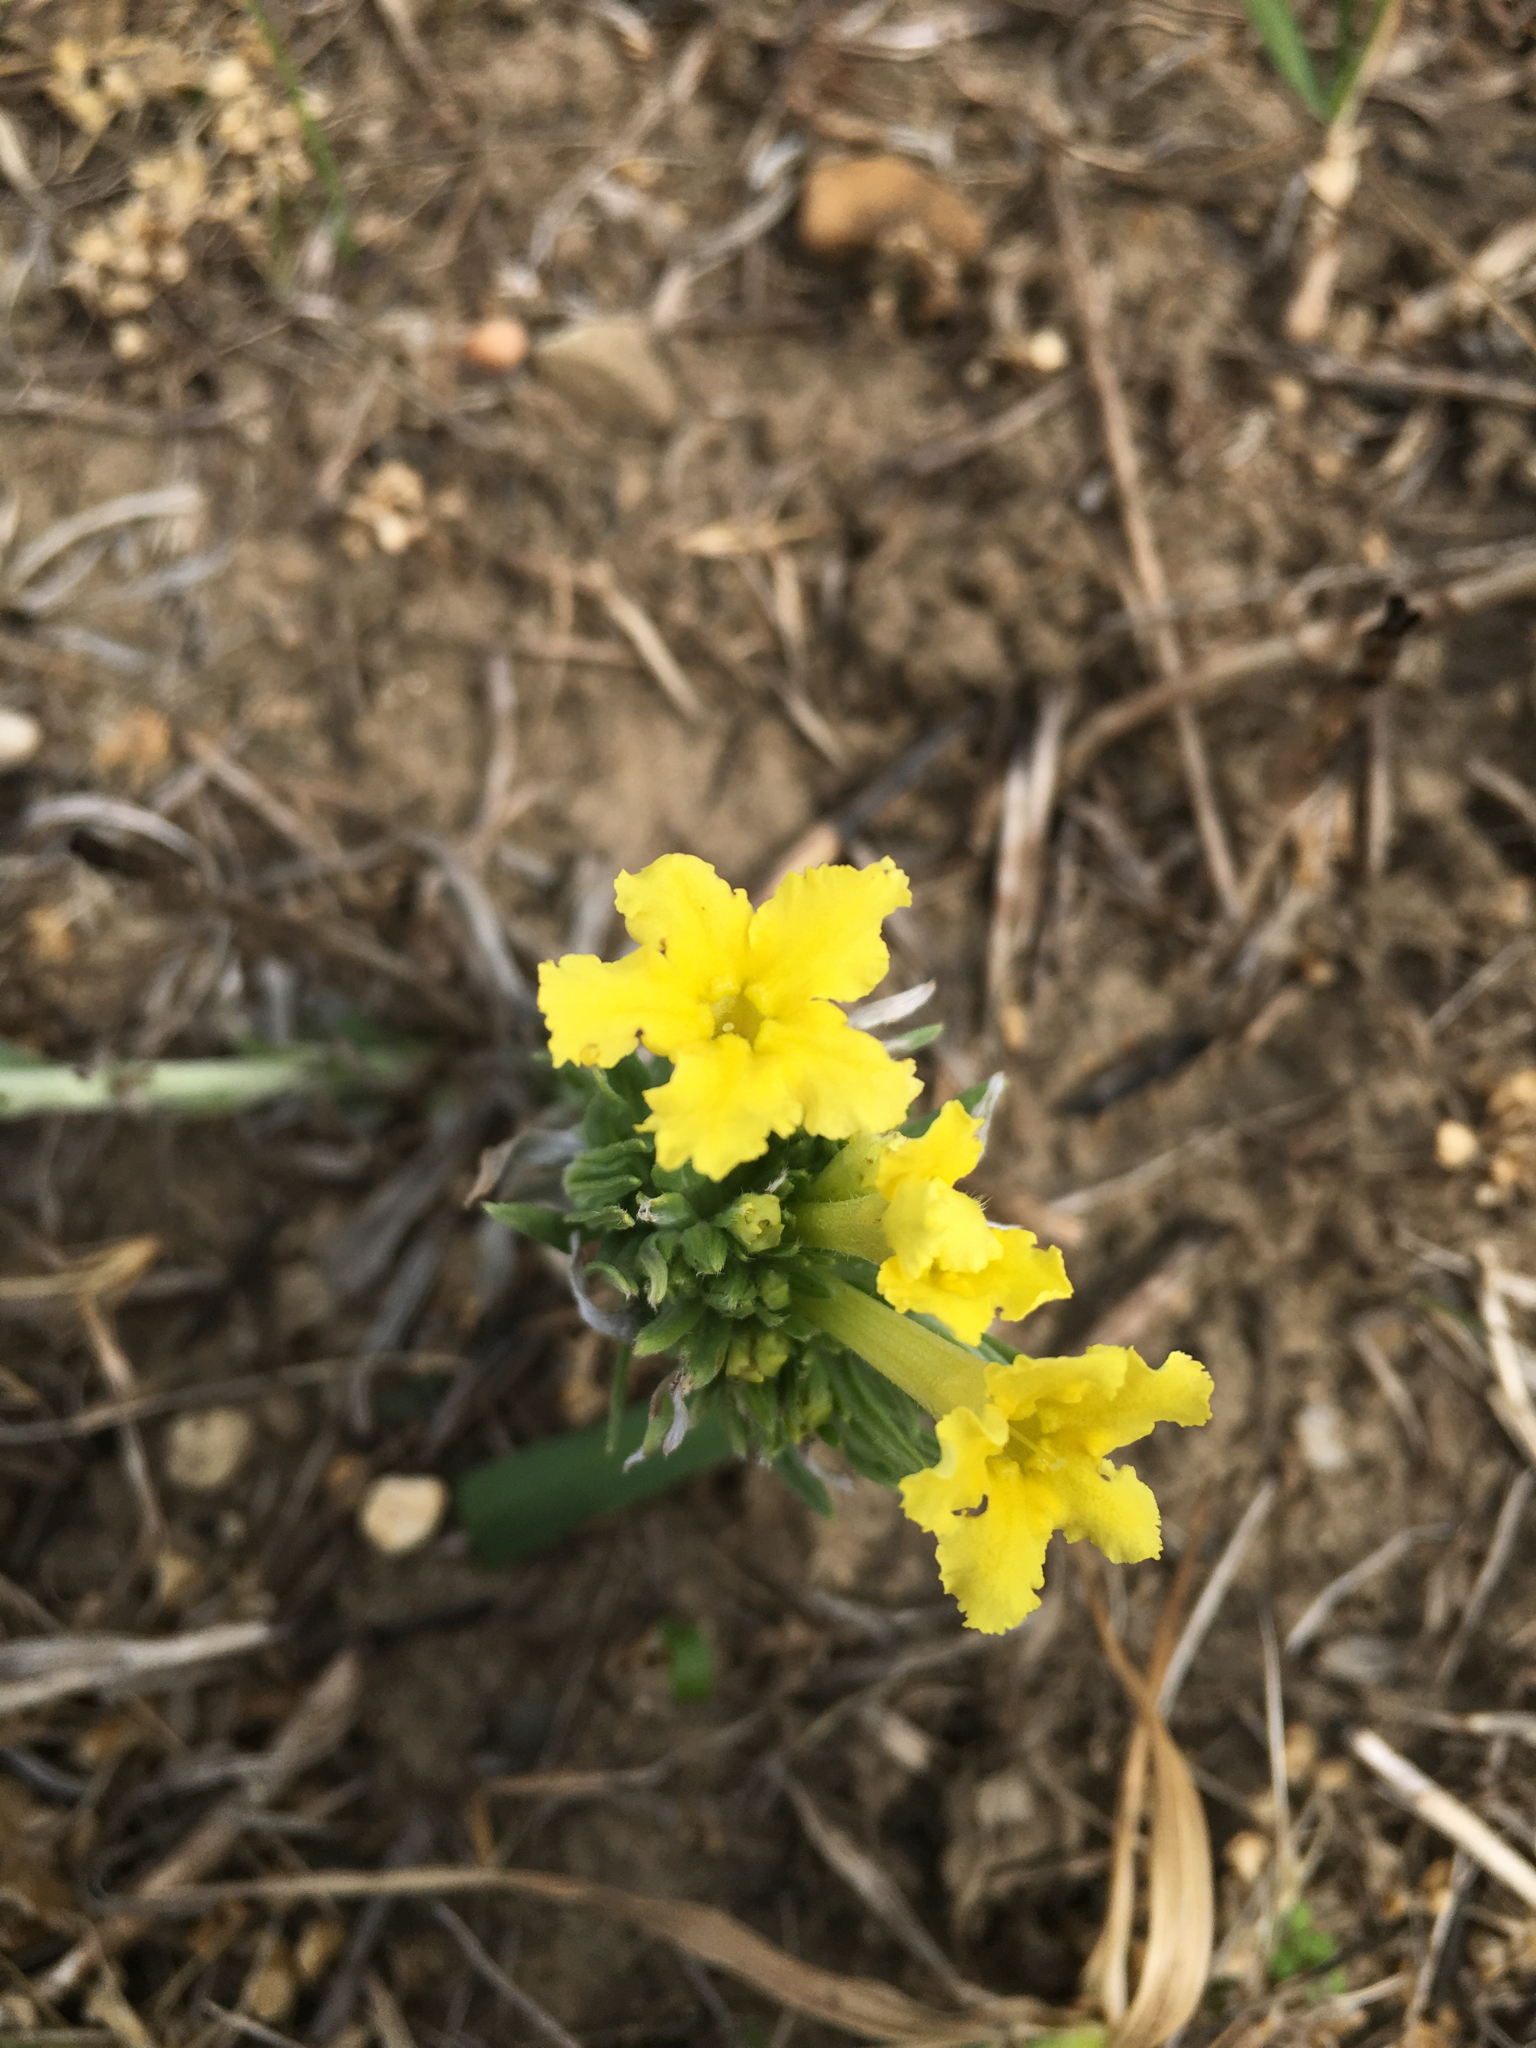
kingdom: Plantae
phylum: Tracheophyta
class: Magnoliopsida
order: Boraginales
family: Boraginaceae
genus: Lithospermum
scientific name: Lithospermum incisum
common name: Fringed gromwell
